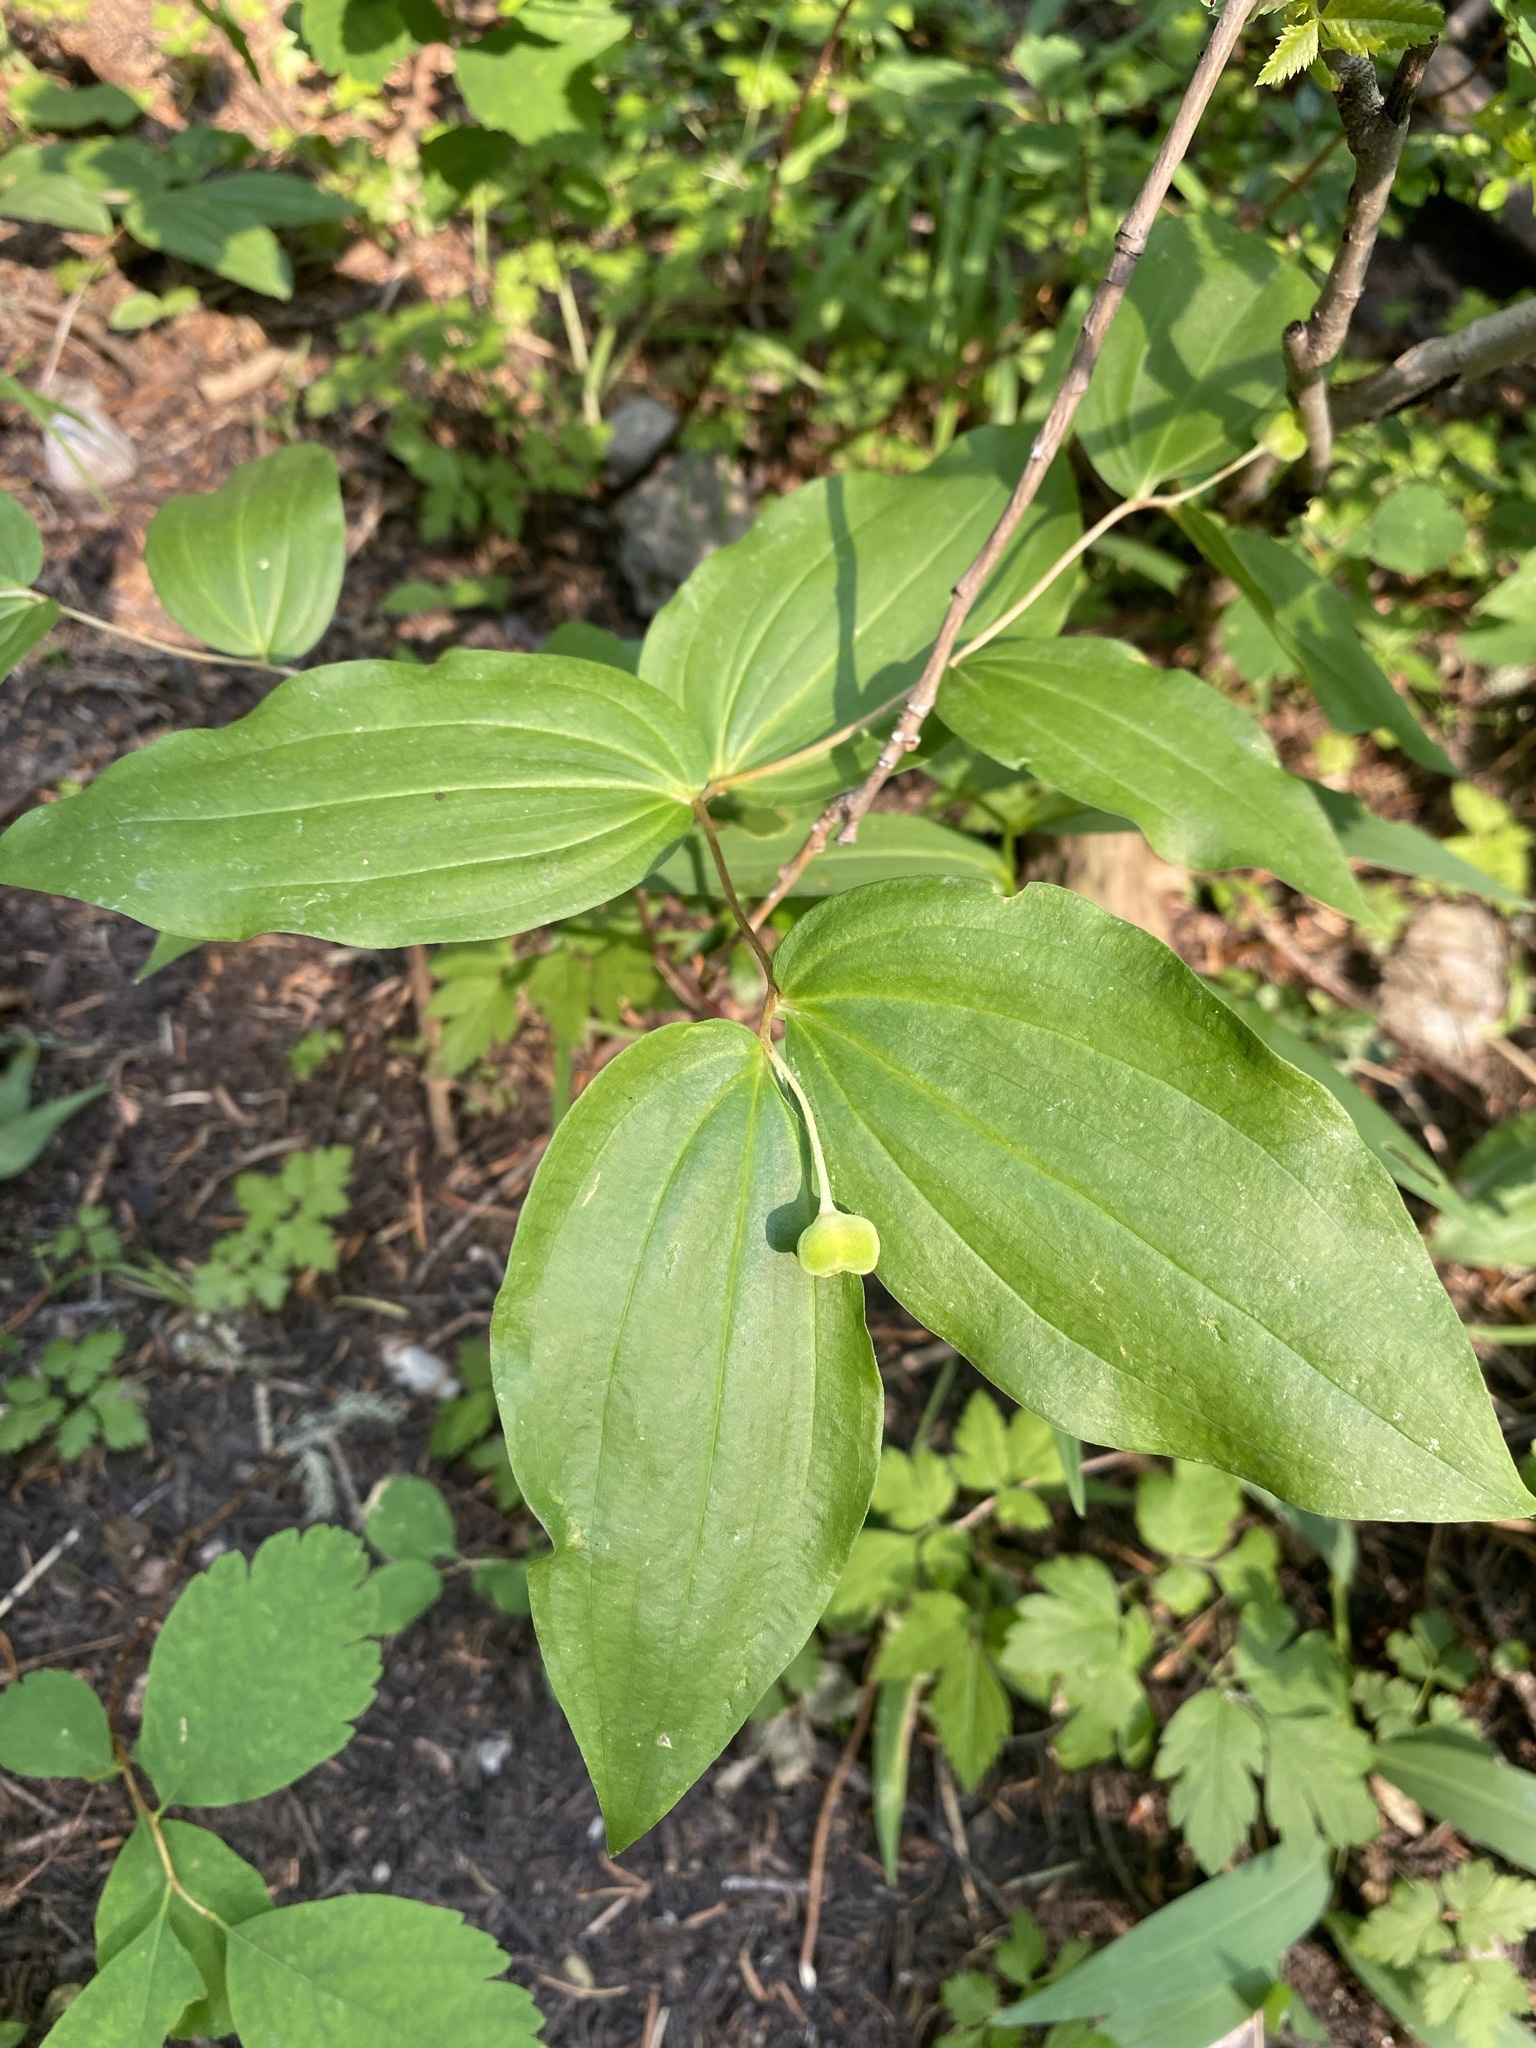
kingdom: Plantae
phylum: Tracheophyta
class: Liliopsida
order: Liliales
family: Liliaceae
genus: Prosartes
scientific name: Prosartes trachycarpa
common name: Rough-fruit fairy-bells
